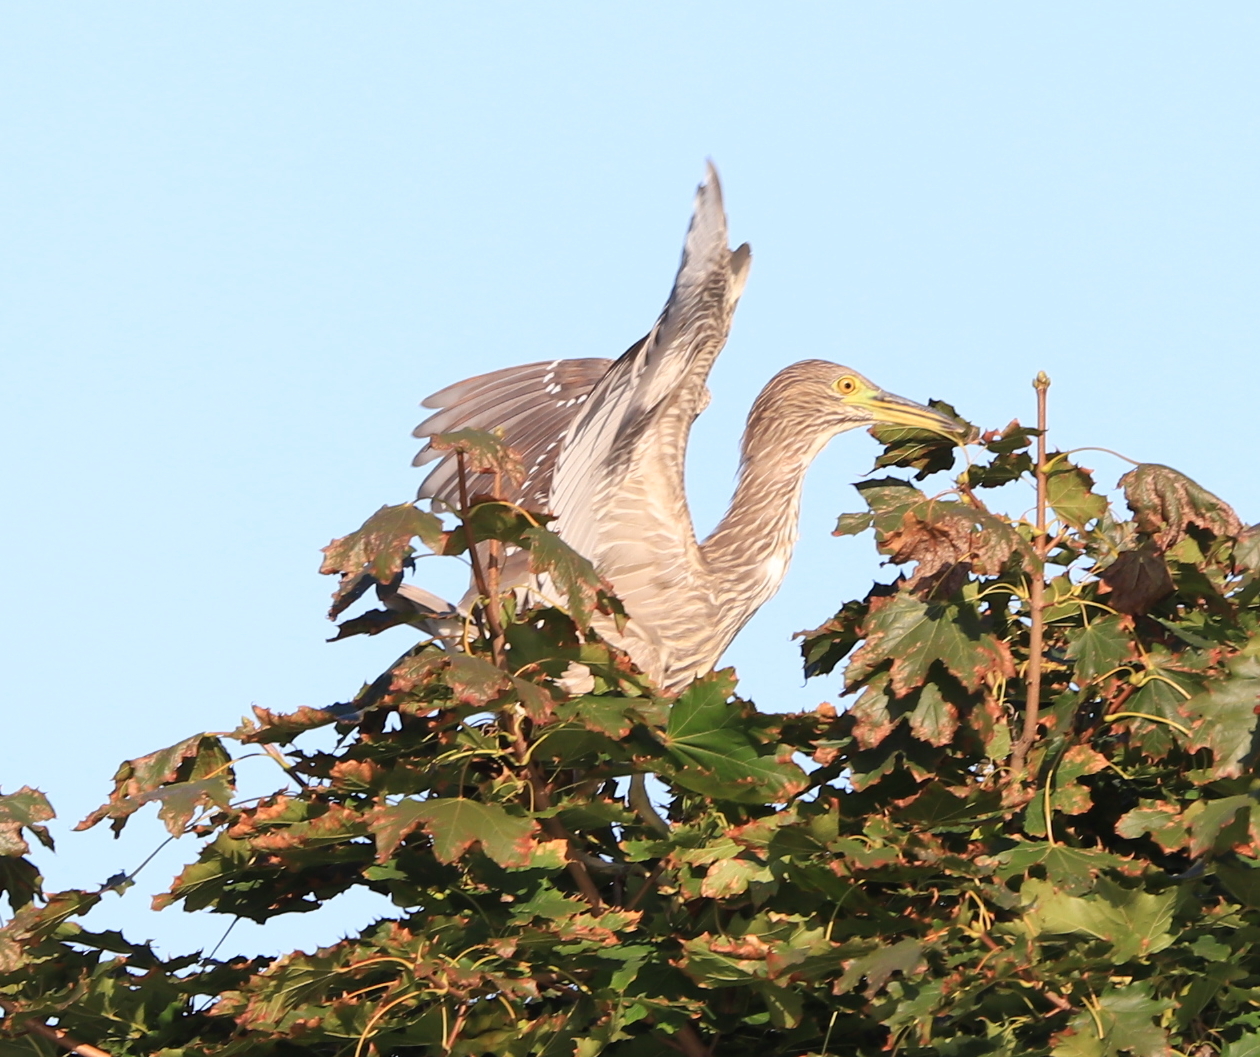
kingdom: Animalia
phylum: Chordata
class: Aves
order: Pelecaniformes
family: Ardeidae
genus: Nycticorax
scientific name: Nycticorax nycticorax
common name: Black-crowned night heron
